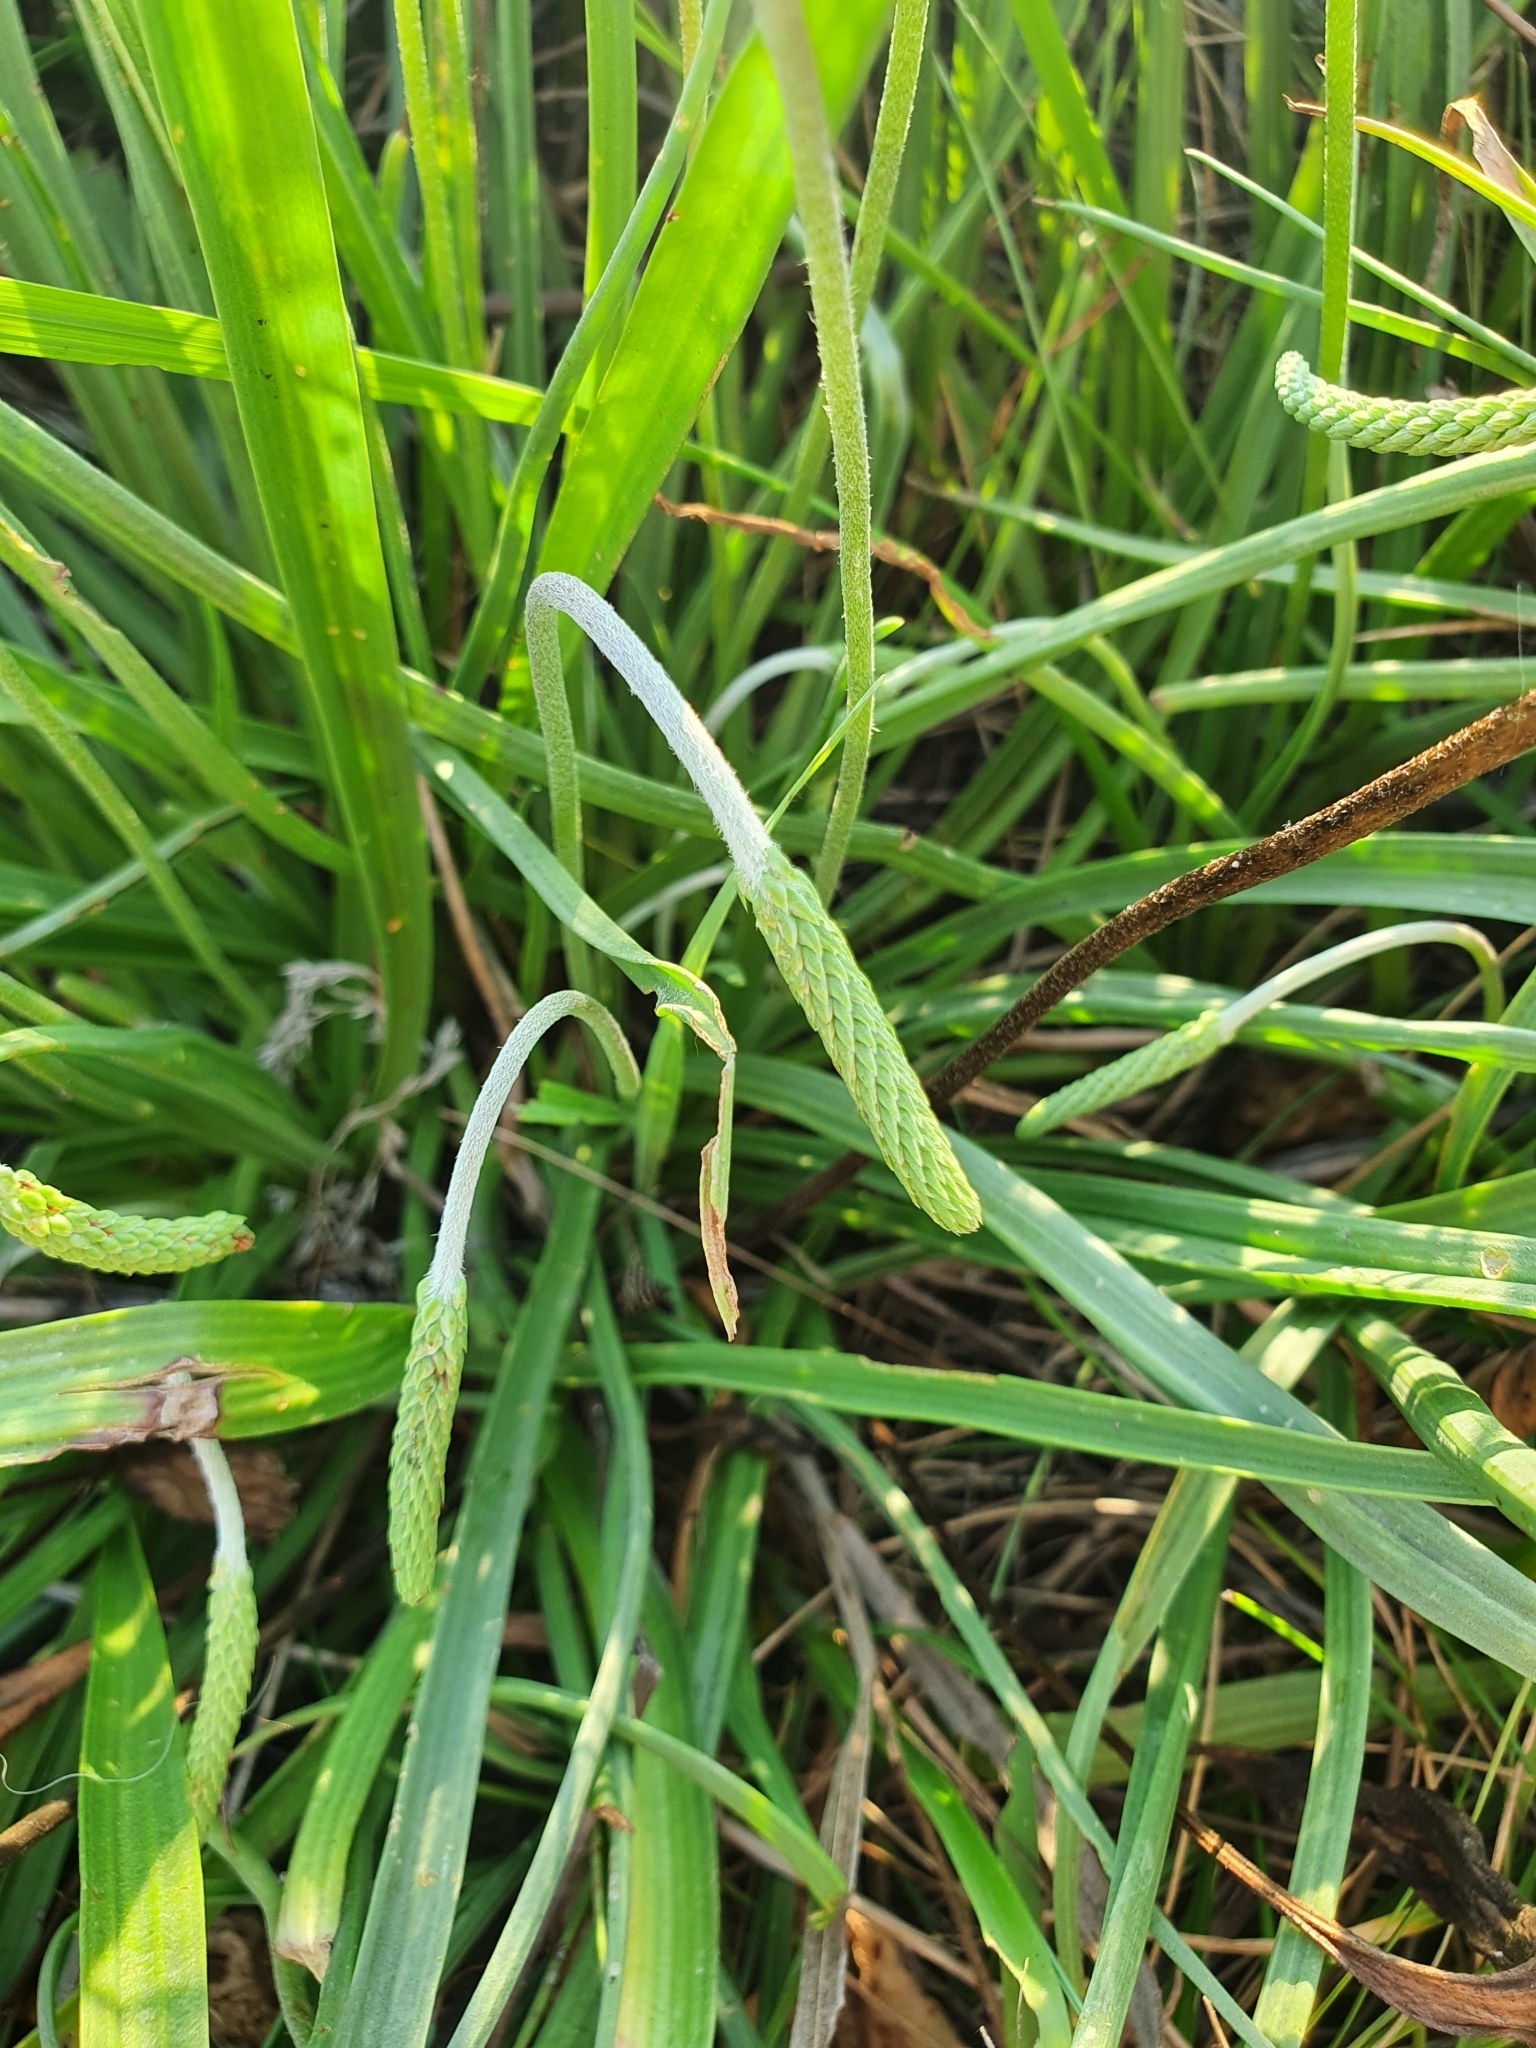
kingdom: Plantae
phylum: Tracheophyta
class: Magnoliopsida
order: Lamiales
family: Plantaginaceae
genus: Plantago
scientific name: Plantago salsa
